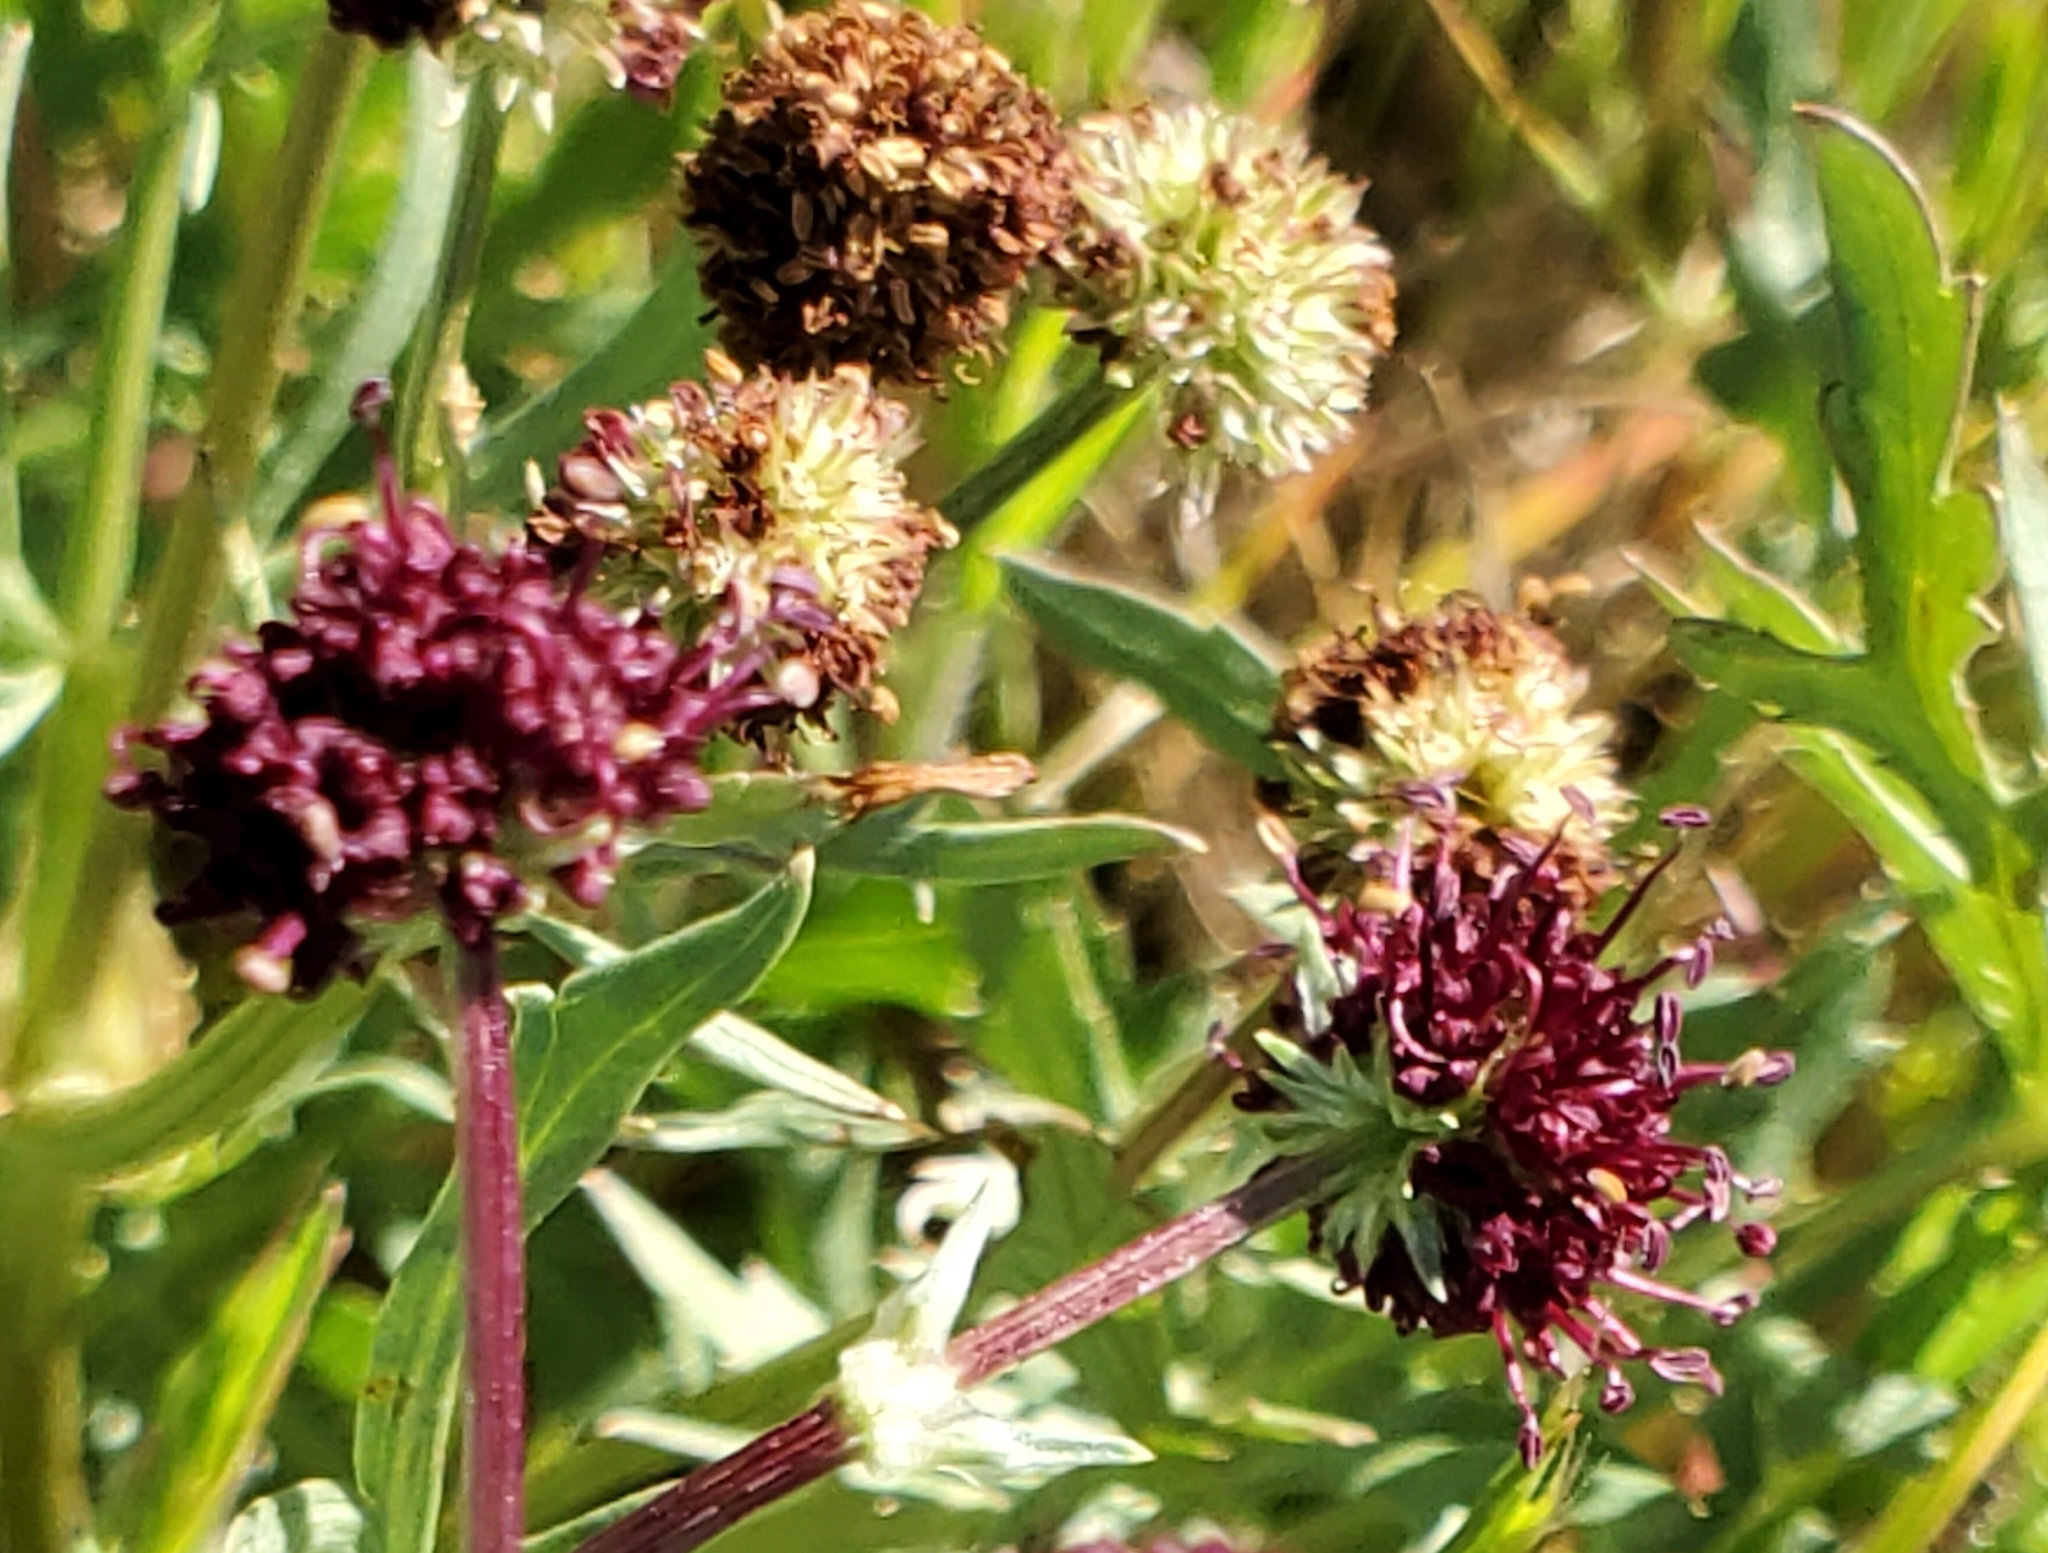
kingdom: Plantae
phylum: Tracheophyta
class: Magnoliopsida
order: Apiales
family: Apiaceae
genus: Sanicula
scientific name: Sanicula bipinnatifida
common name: Shoe-buttons
